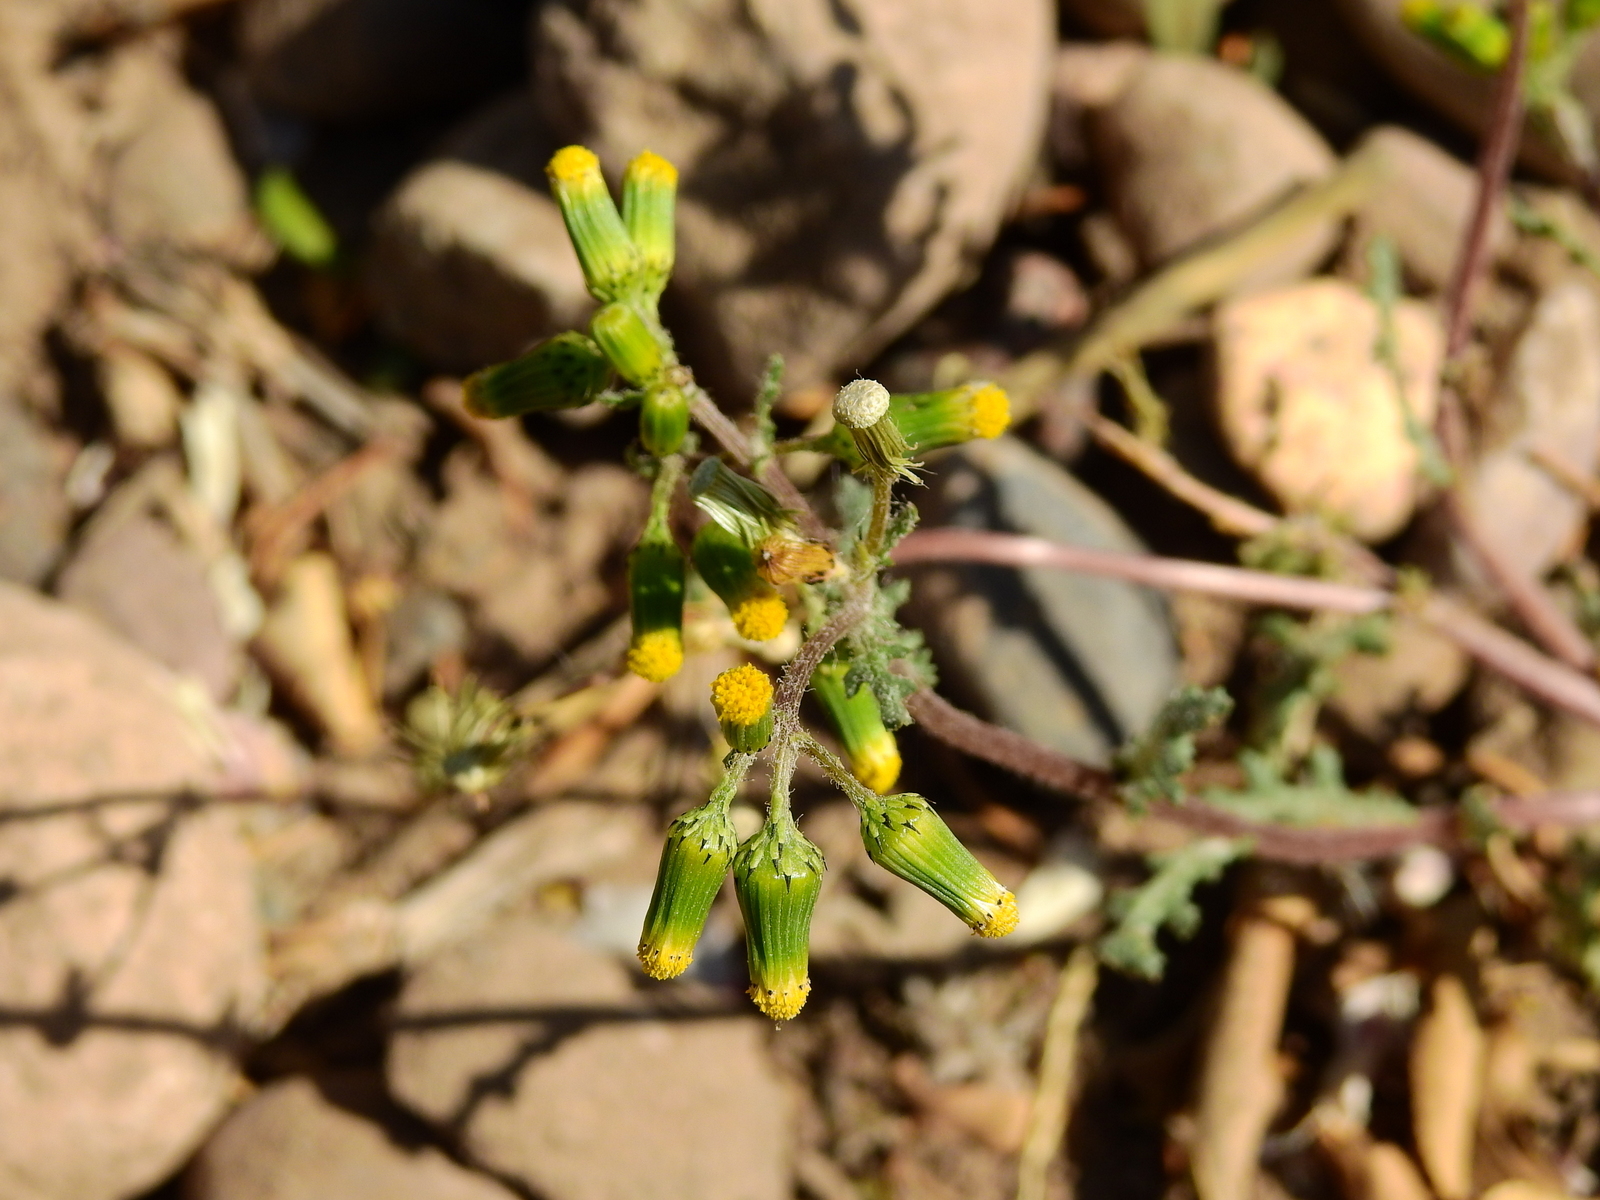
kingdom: Plantae
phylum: Tracheophyta
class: Magnoliopsida
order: Asterales
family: Asteraceae
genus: Senecio
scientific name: Senecio vulgaris
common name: Old-man-in-the-spring
